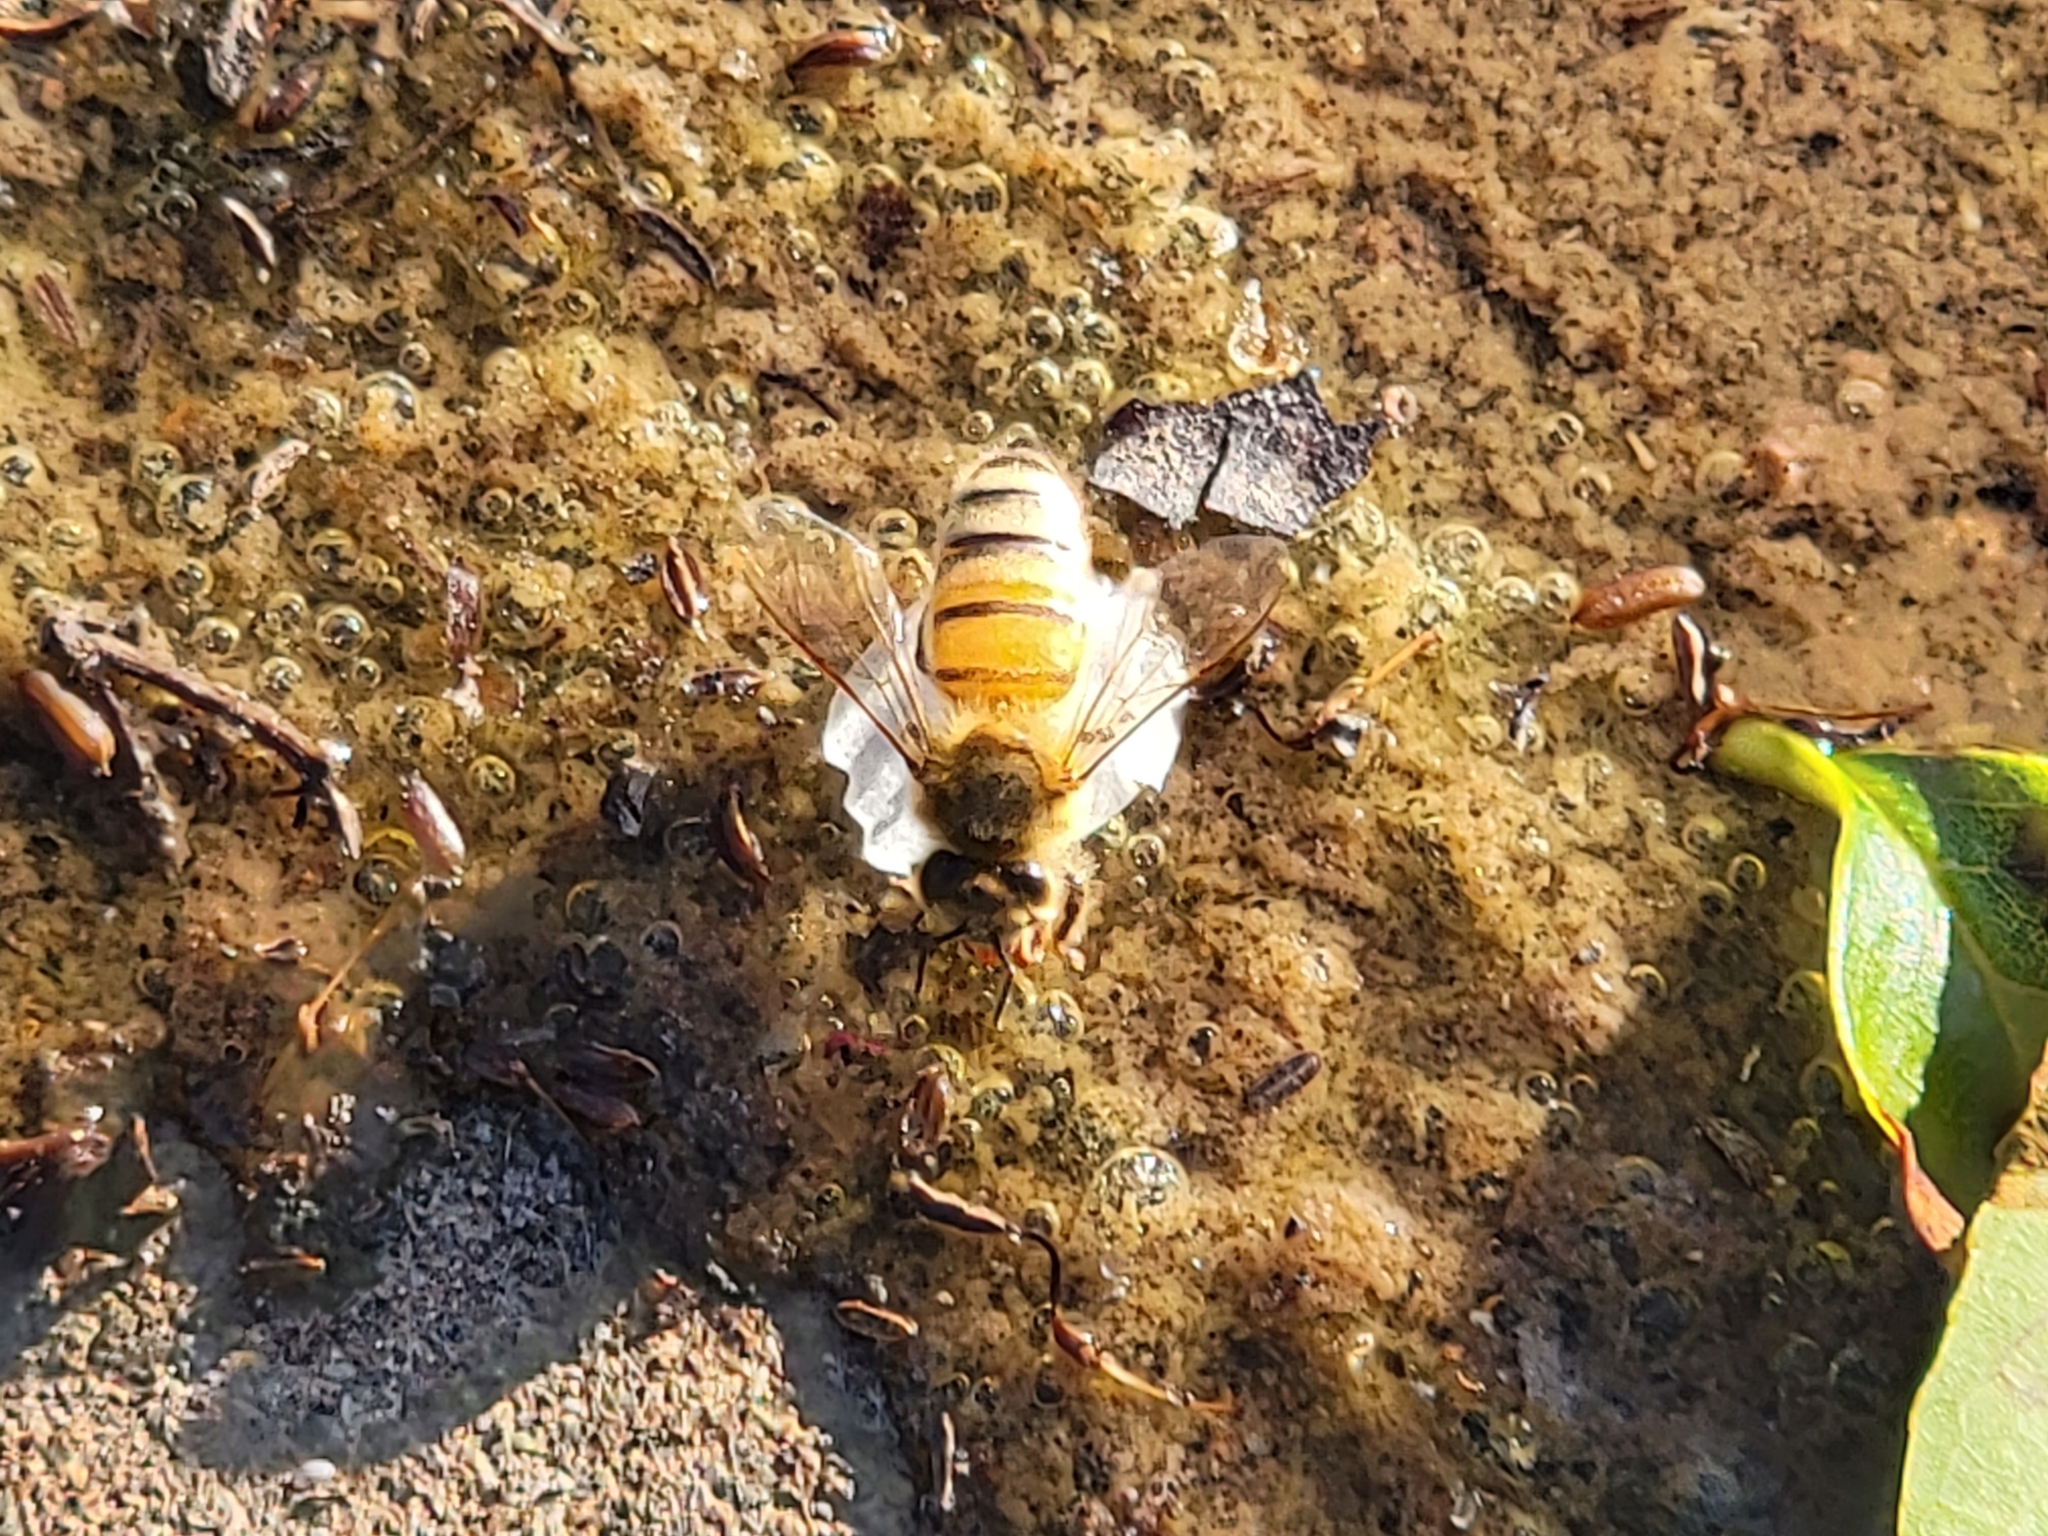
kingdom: Animalia
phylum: Arthropoda
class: Insecta
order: Hymenoptera
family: Apidae
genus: Apis
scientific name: Apis mellifera
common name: Honey bee
